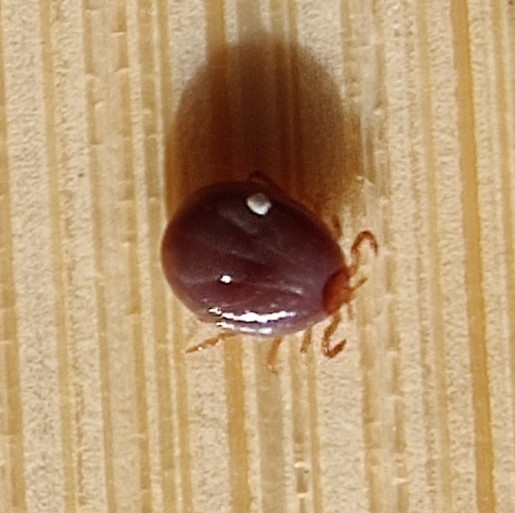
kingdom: Animalia
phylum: Arthropoda
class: Arachnida
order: Ixodida
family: Ixodidae
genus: Amblyomma
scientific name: Amblyomma americanum
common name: Lone star tick
